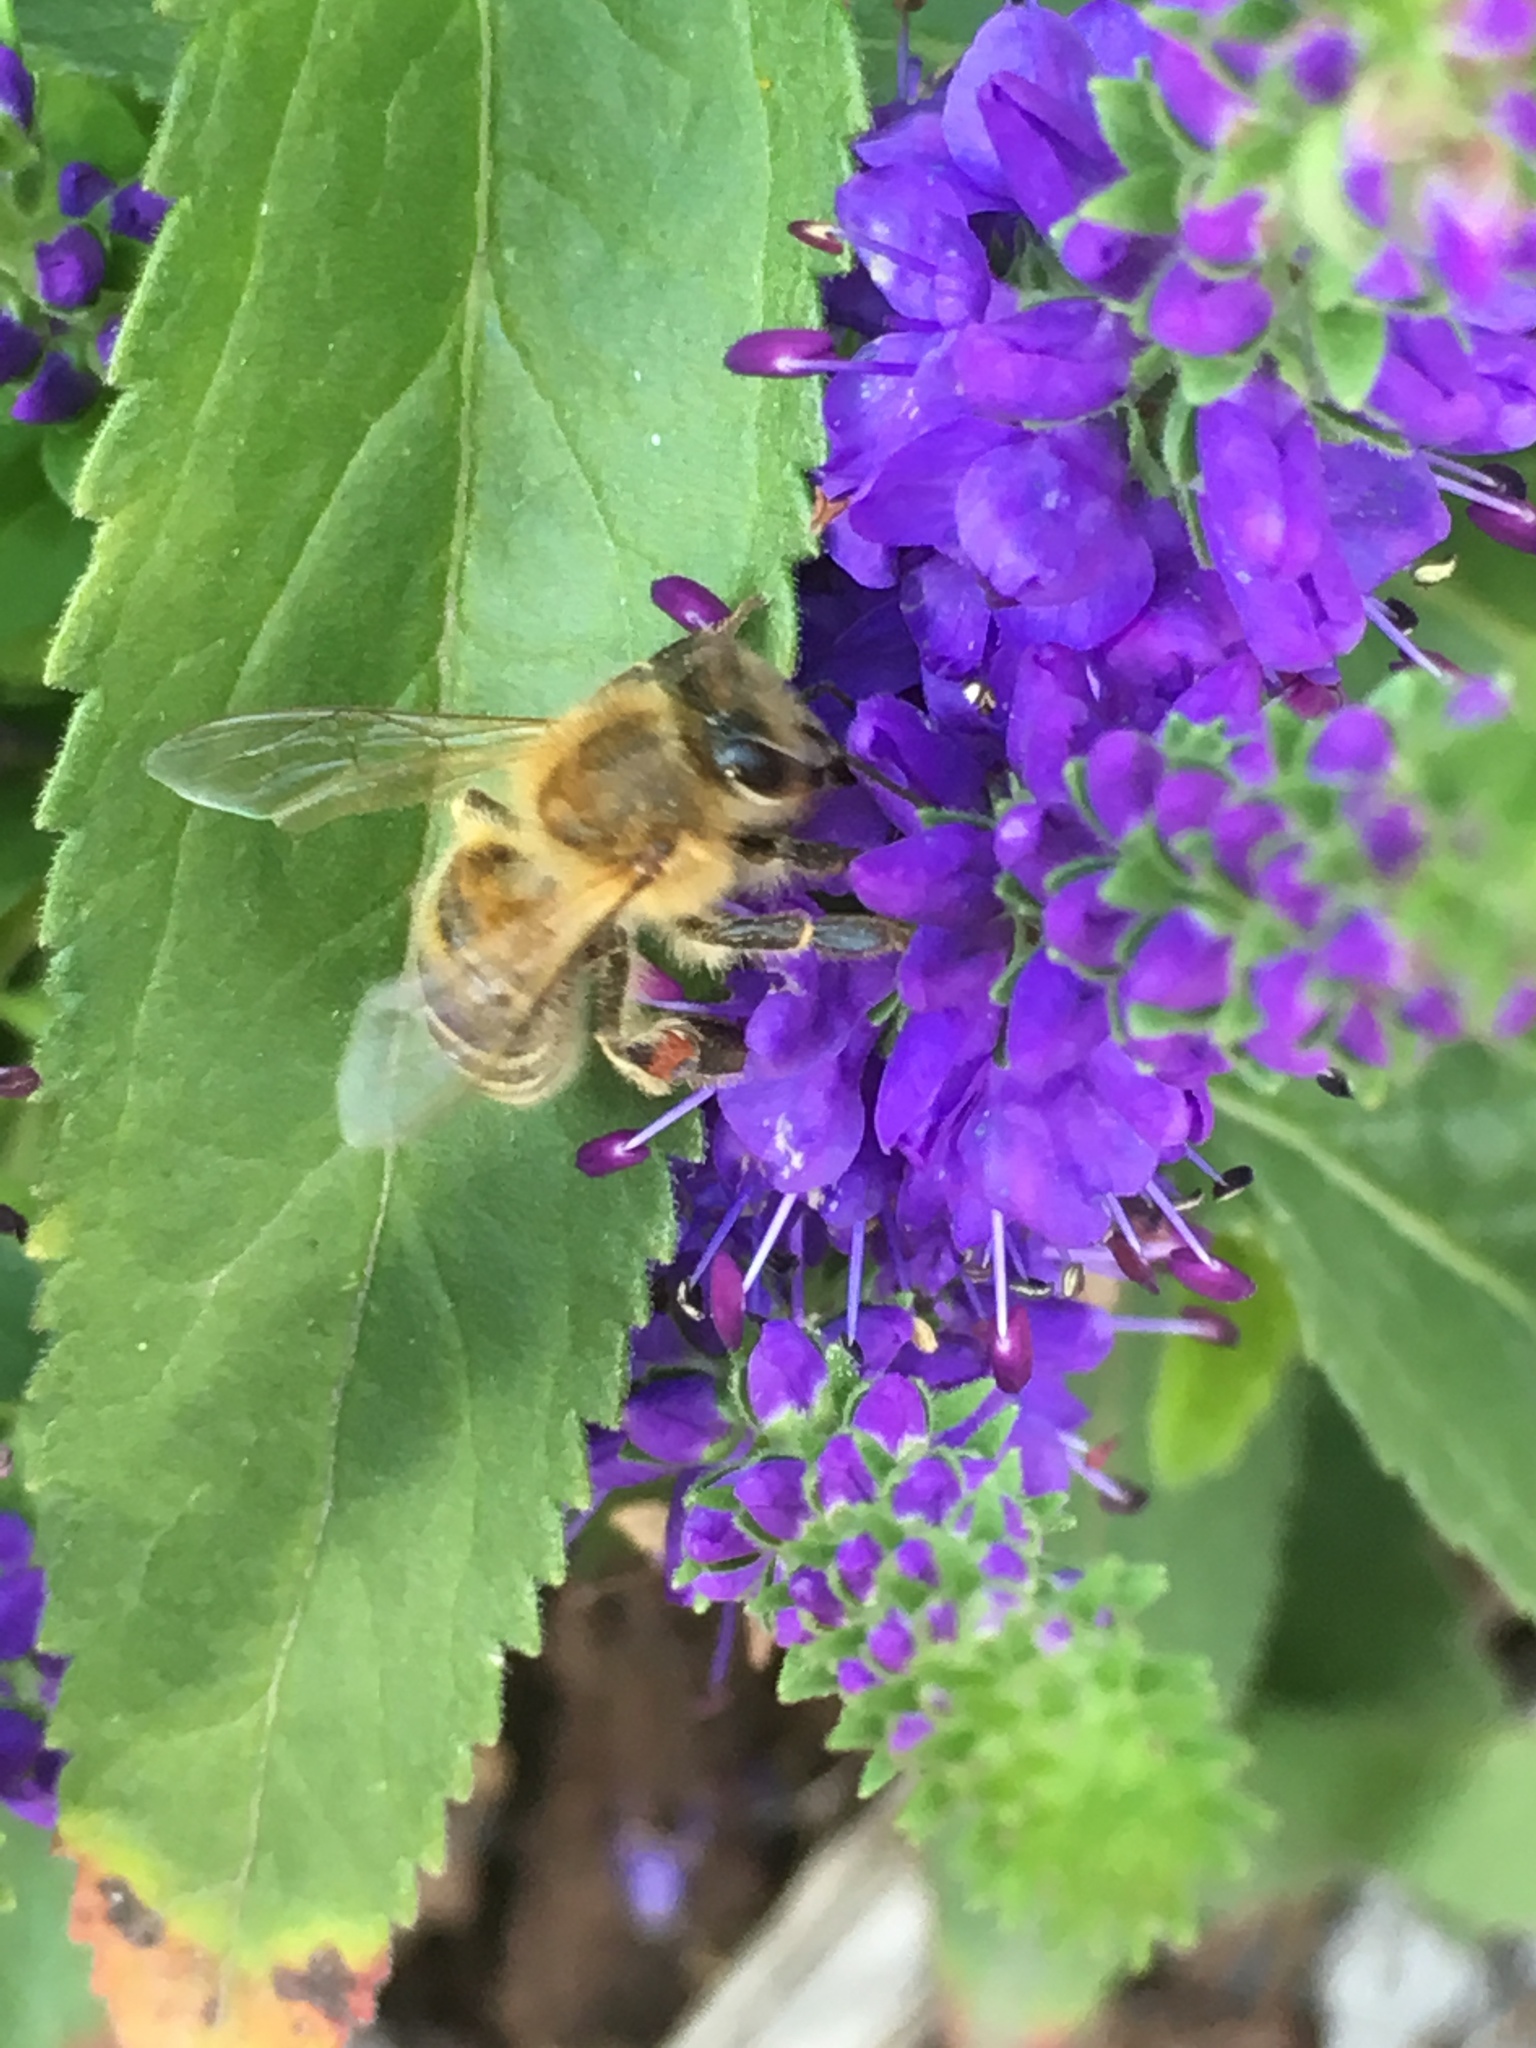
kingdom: Animalia
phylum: Arthropoda
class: Insecta
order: Hymenoptera
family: Apidae
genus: Apis
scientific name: Apis mellifera
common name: Honey bee
